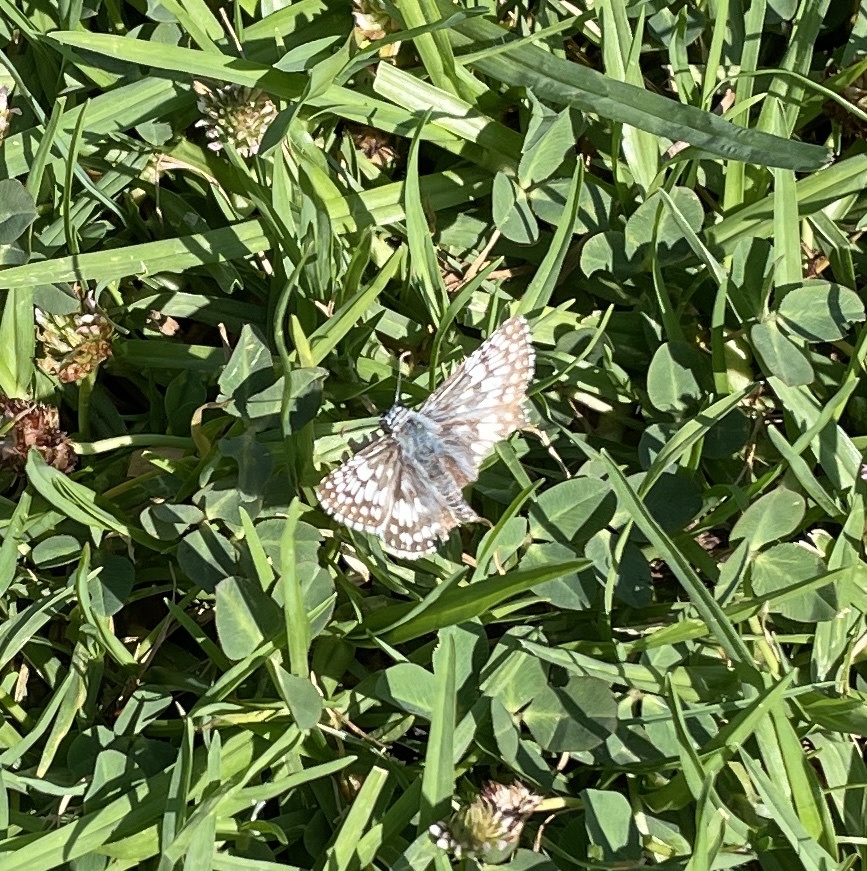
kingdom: Animalia
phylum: Arthropoda
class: Insecta
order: Lepidoptera
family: Hesperiidae
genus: Burnsius
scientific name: Burnsius communis
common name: Common checkered-skipper
